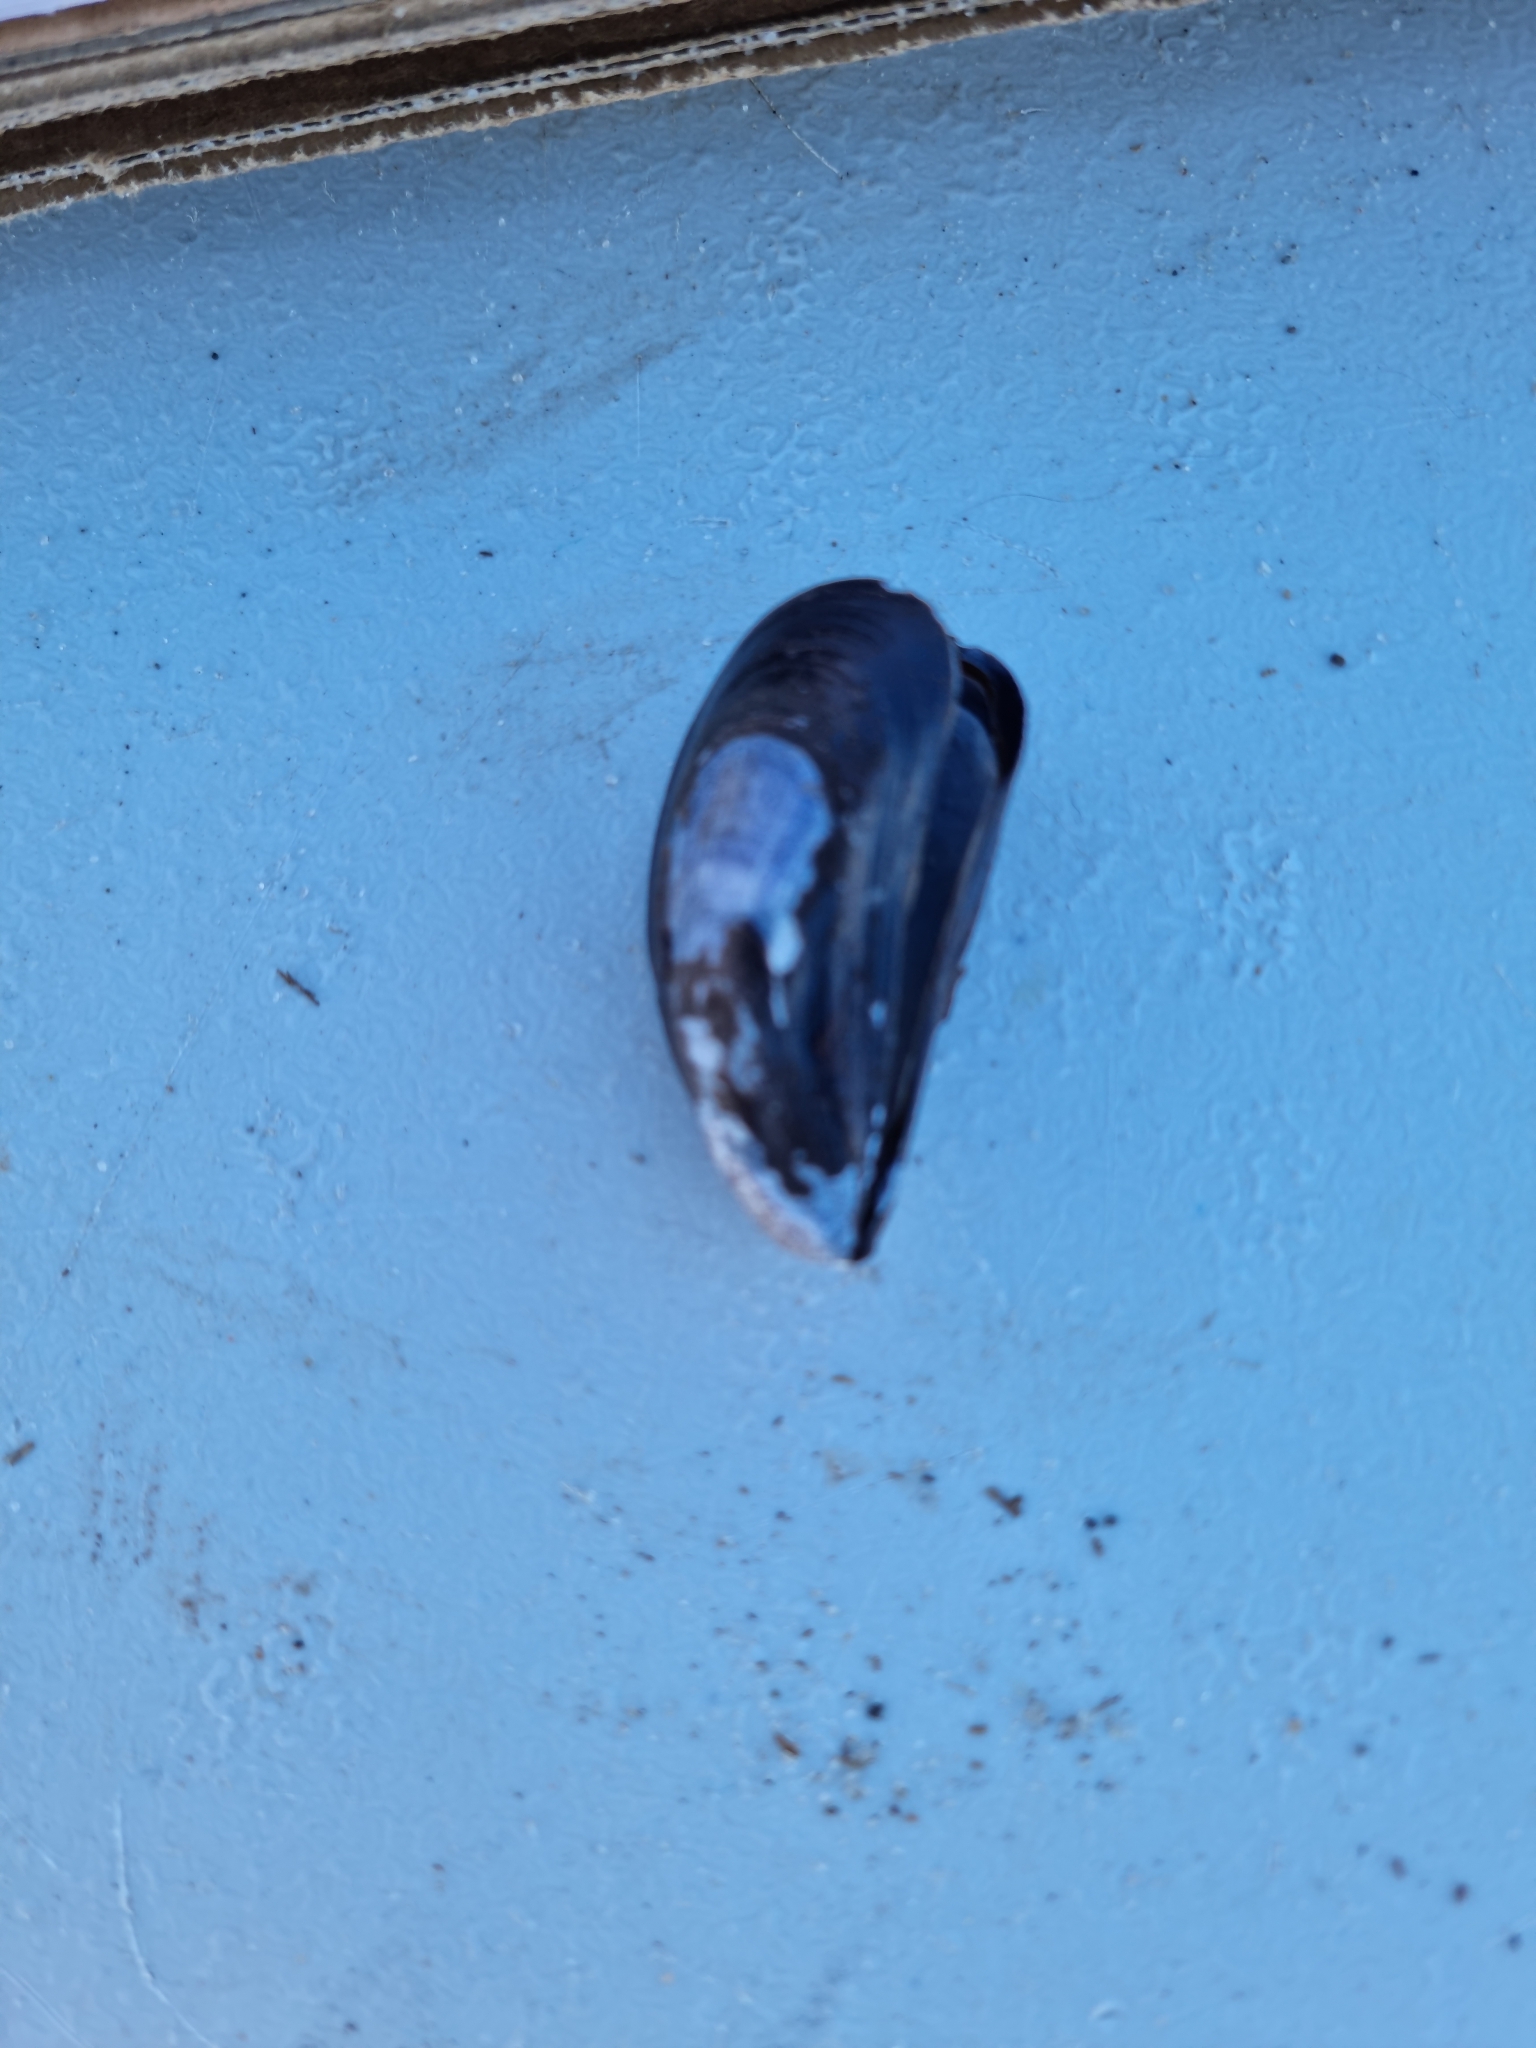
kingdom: Animalia
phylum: Mollusca
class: Bivalvia
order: Mytilida
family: Mytilidae
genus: Mytilus
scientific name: Mytilus edulis
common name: Blue mussel
